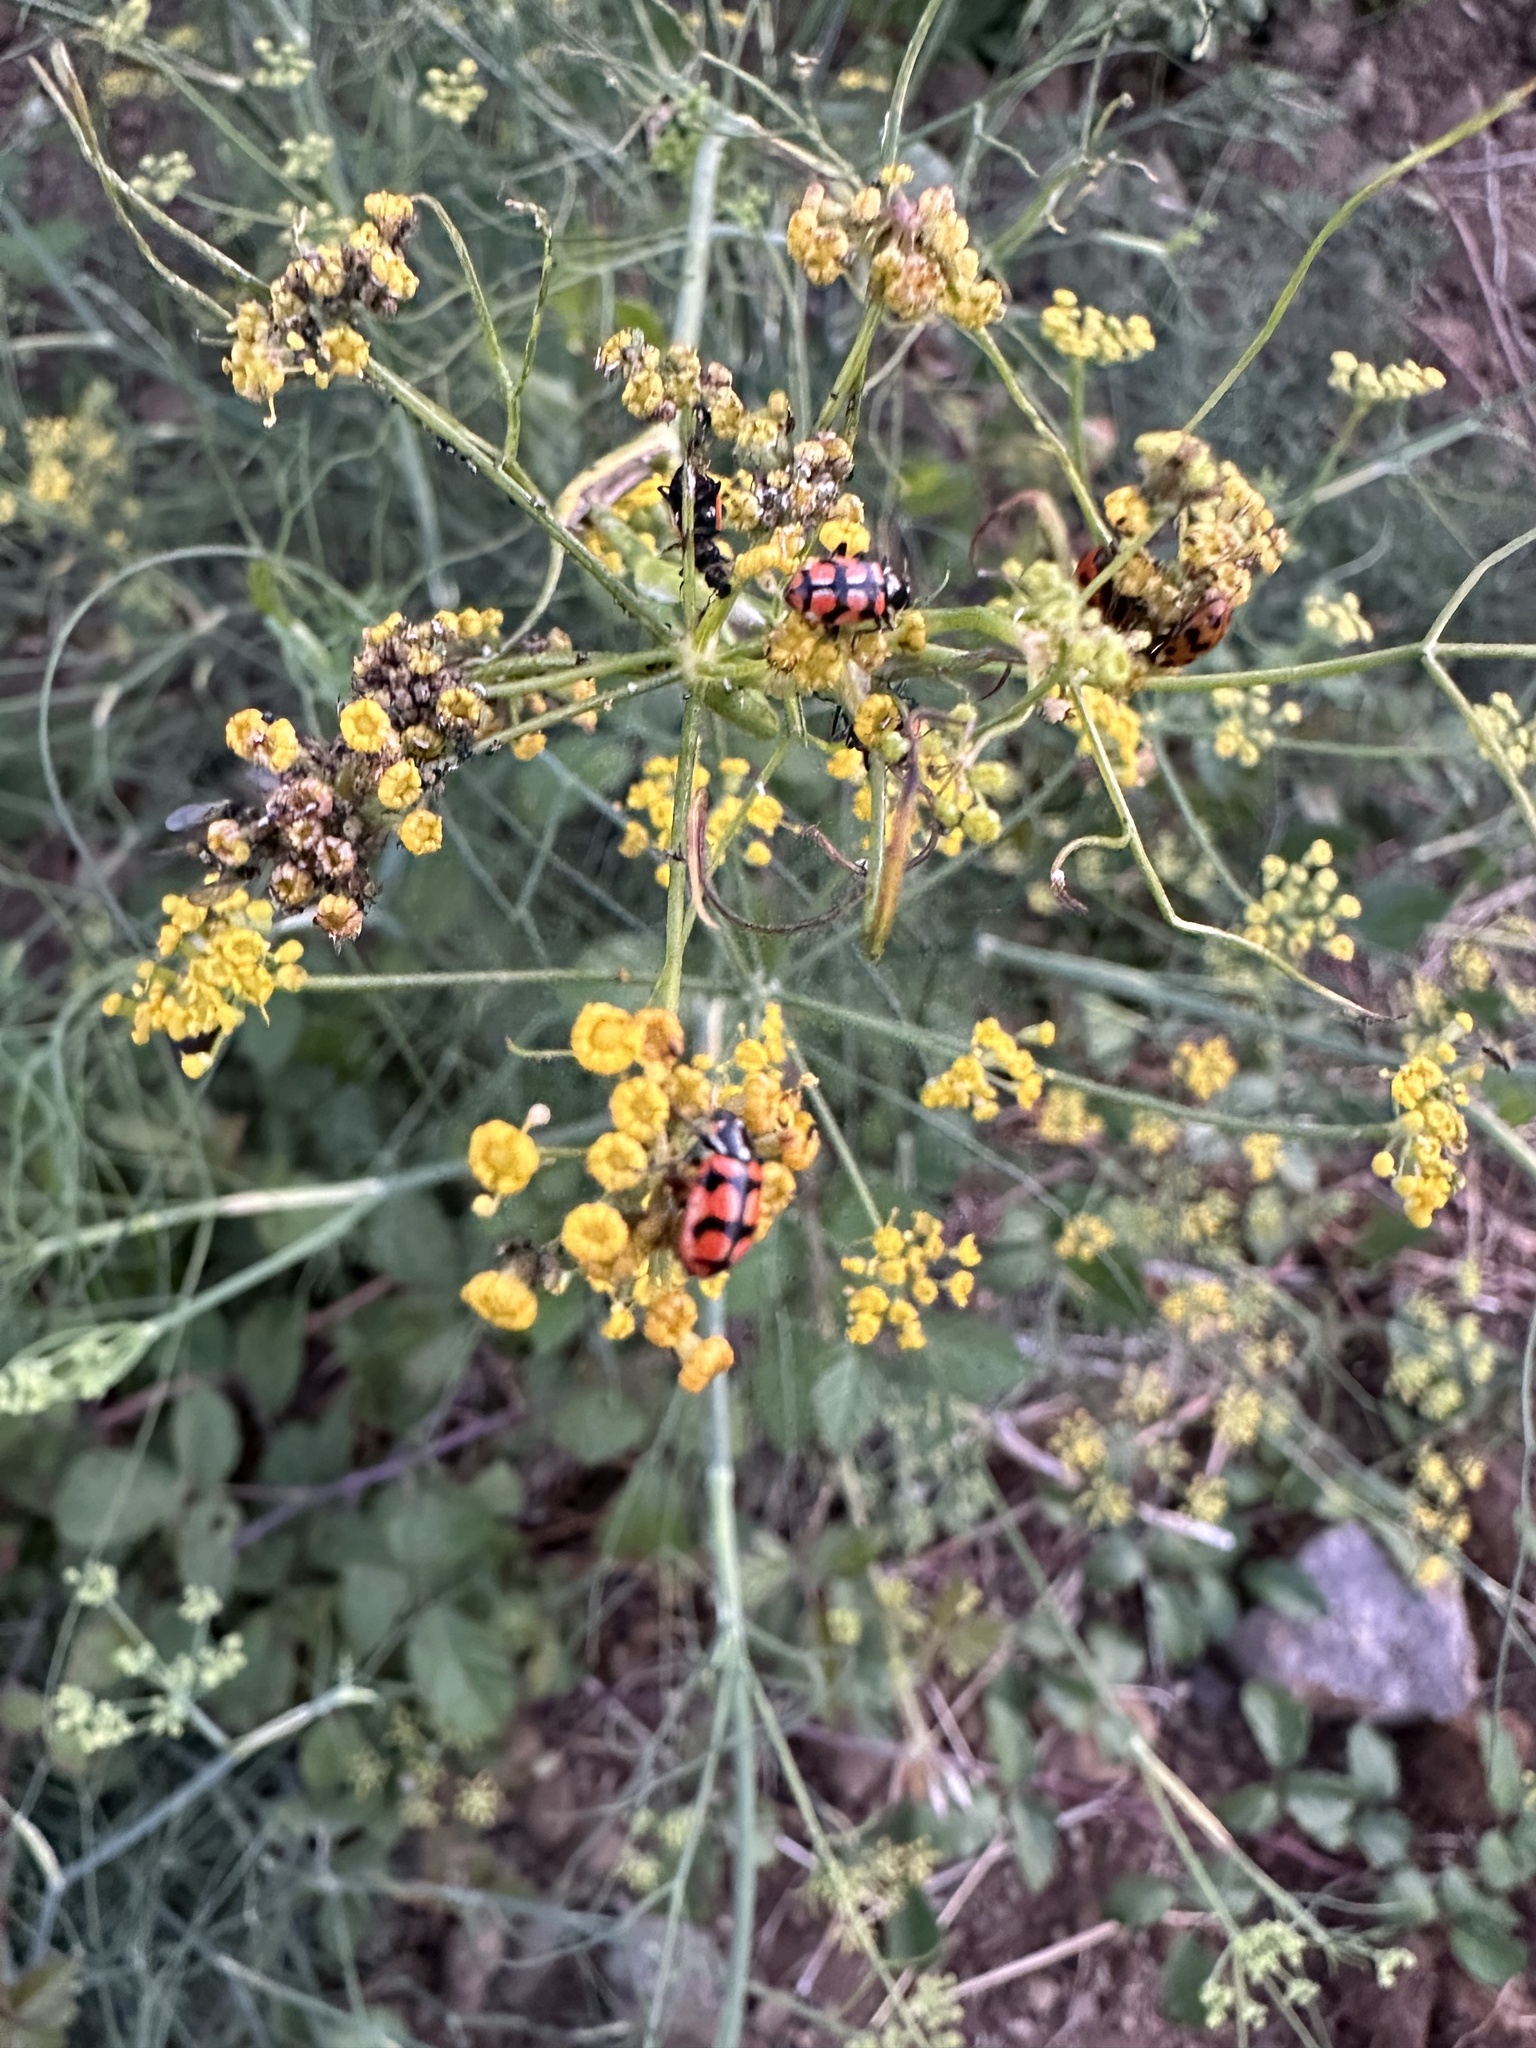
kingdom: Animalia
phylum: Arthropoda
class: Insecta
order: Coleoptera
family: Coccinellidae
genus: Eriopis
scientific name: Eriopis chilensis
